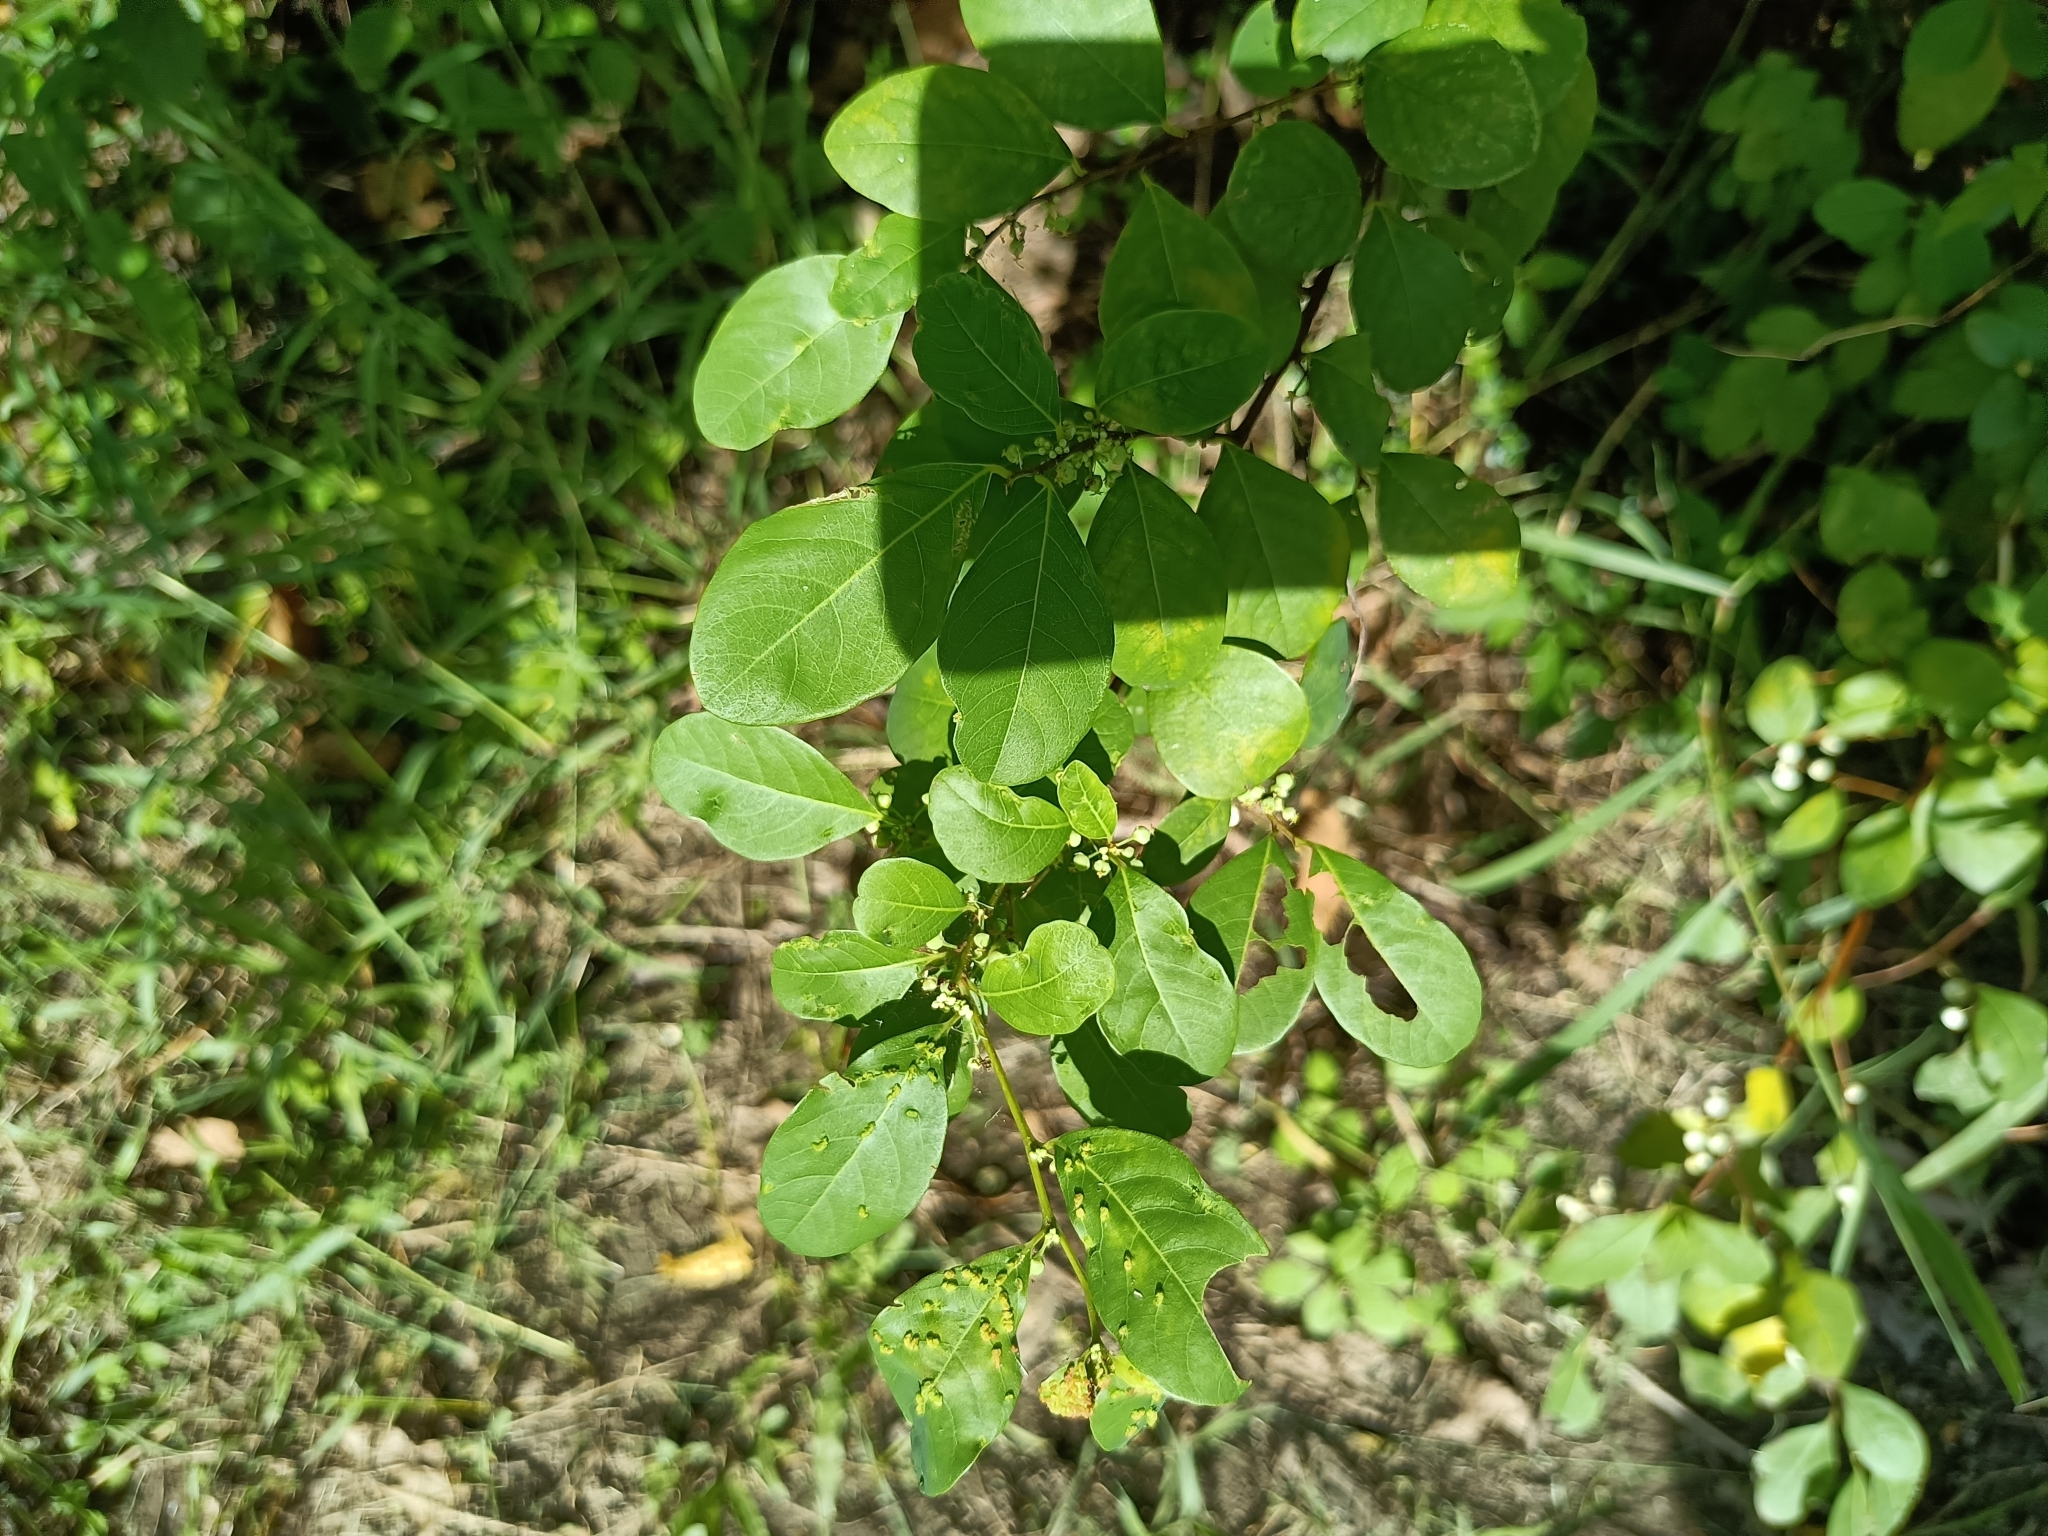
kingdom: Plantae
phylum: Tracheophyta
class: Magnoliopsida
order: Malpighiales
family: Phyllanthaceae
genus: Flueggea
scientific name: Flueggea virosa
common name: Common bushweed
